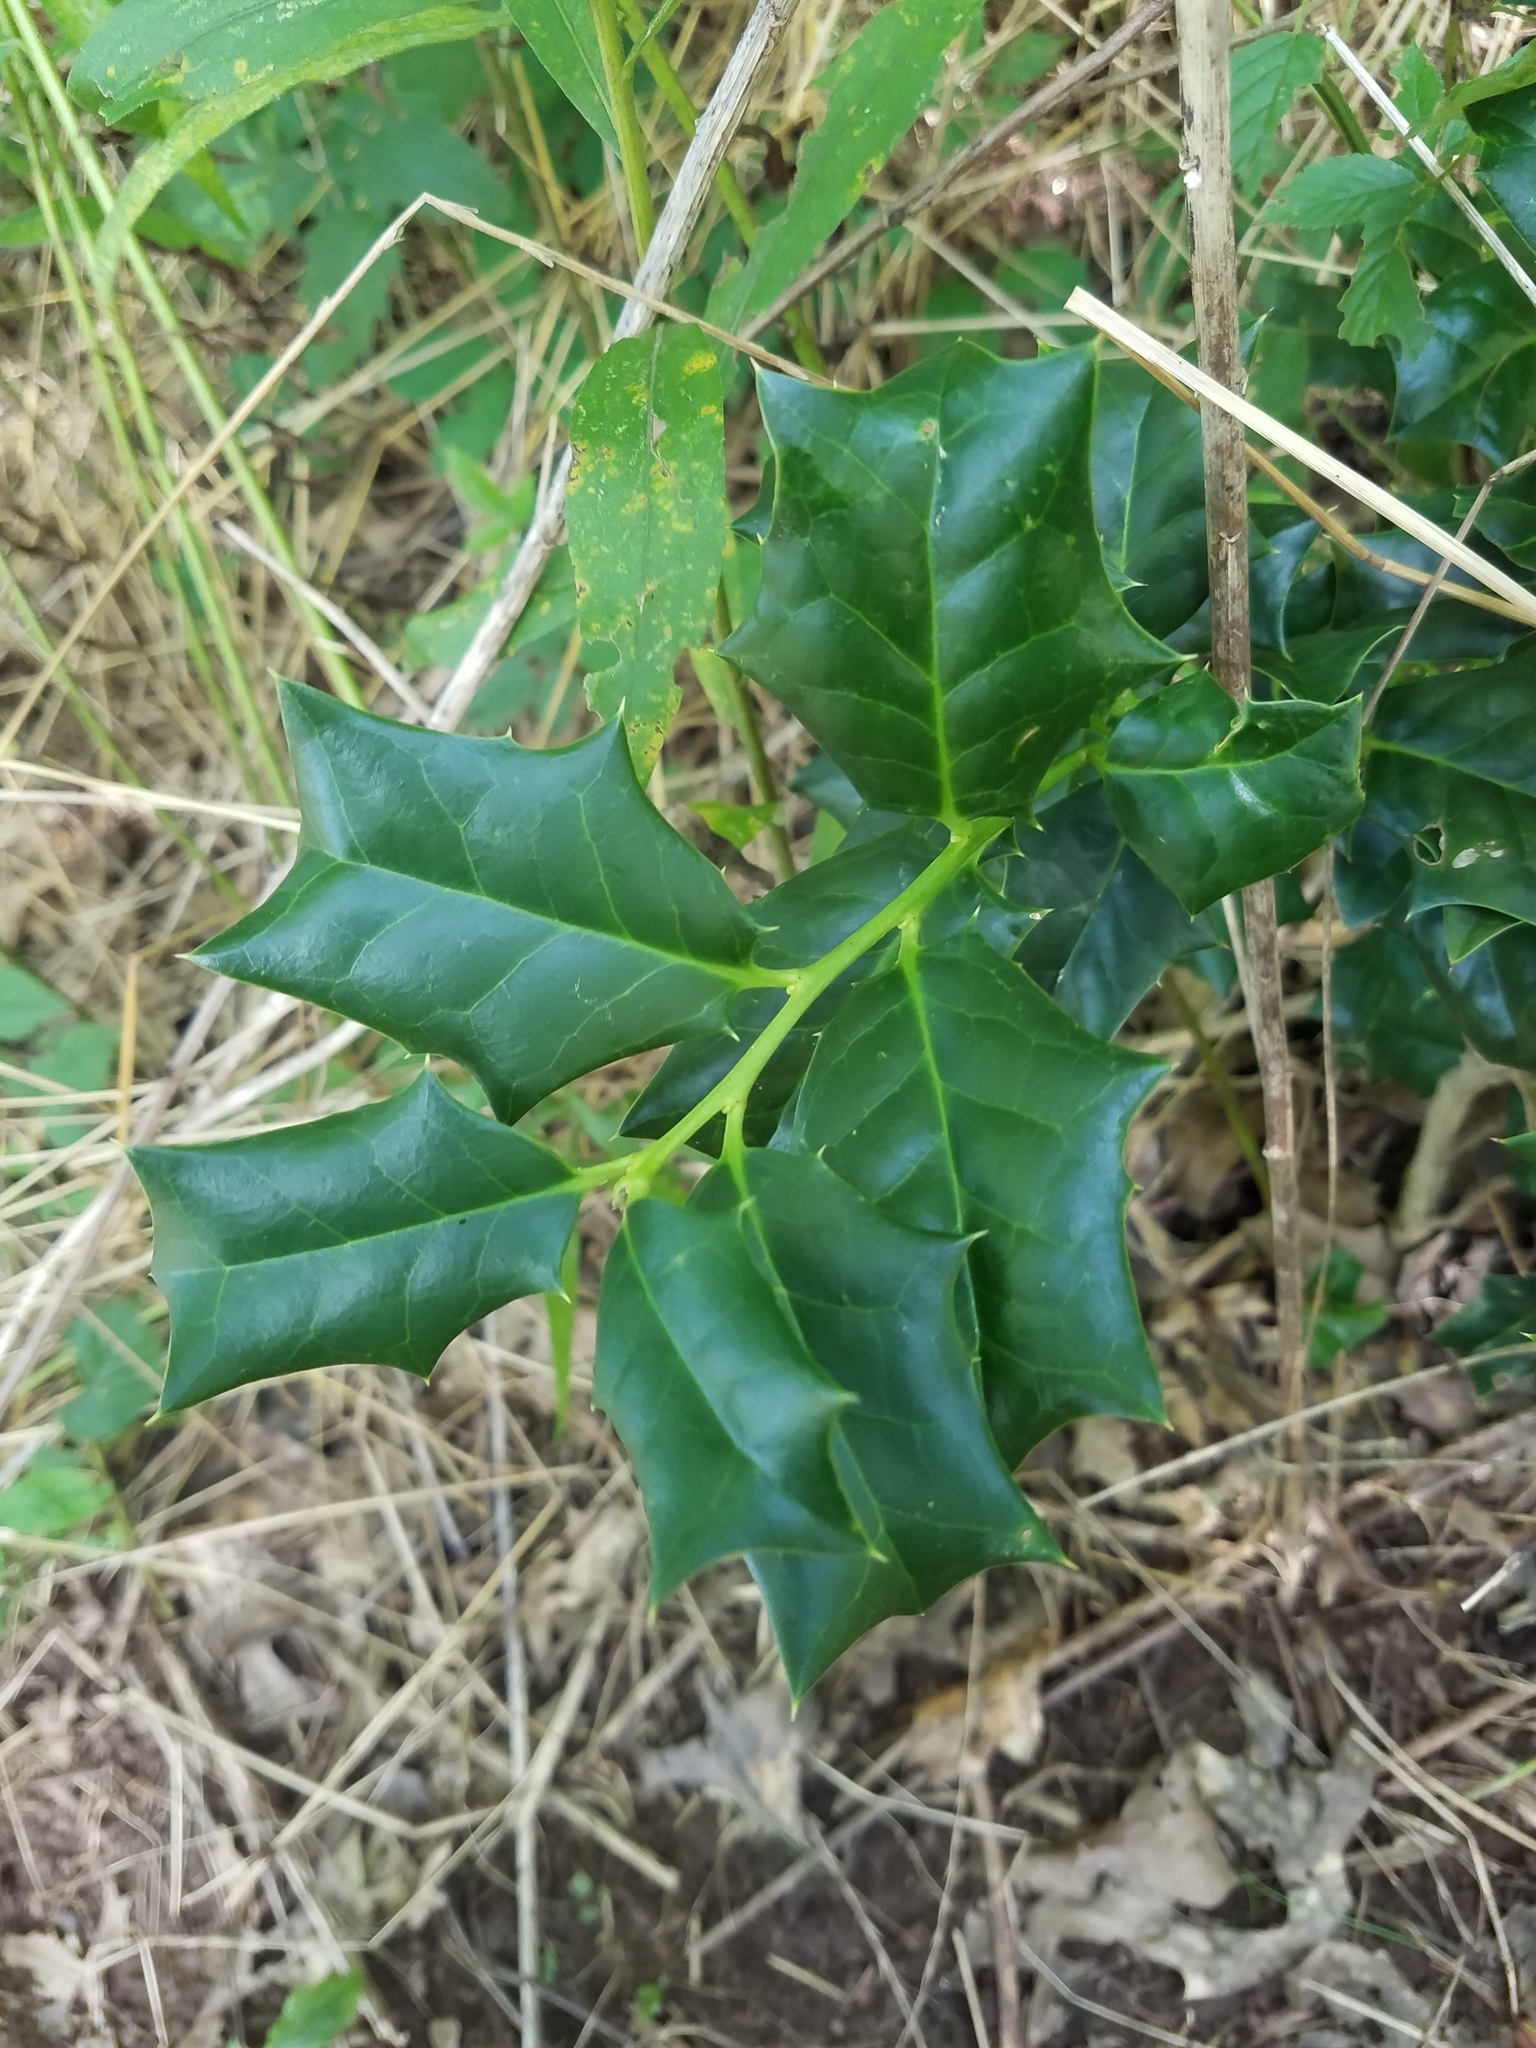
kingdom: Plantae
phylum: Tracheophyta
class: Magnoliopsida
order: Aquifoliales
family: Aquifoliaceae
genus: Ilex
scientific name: Ilex cornuta
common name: Chinese holly
